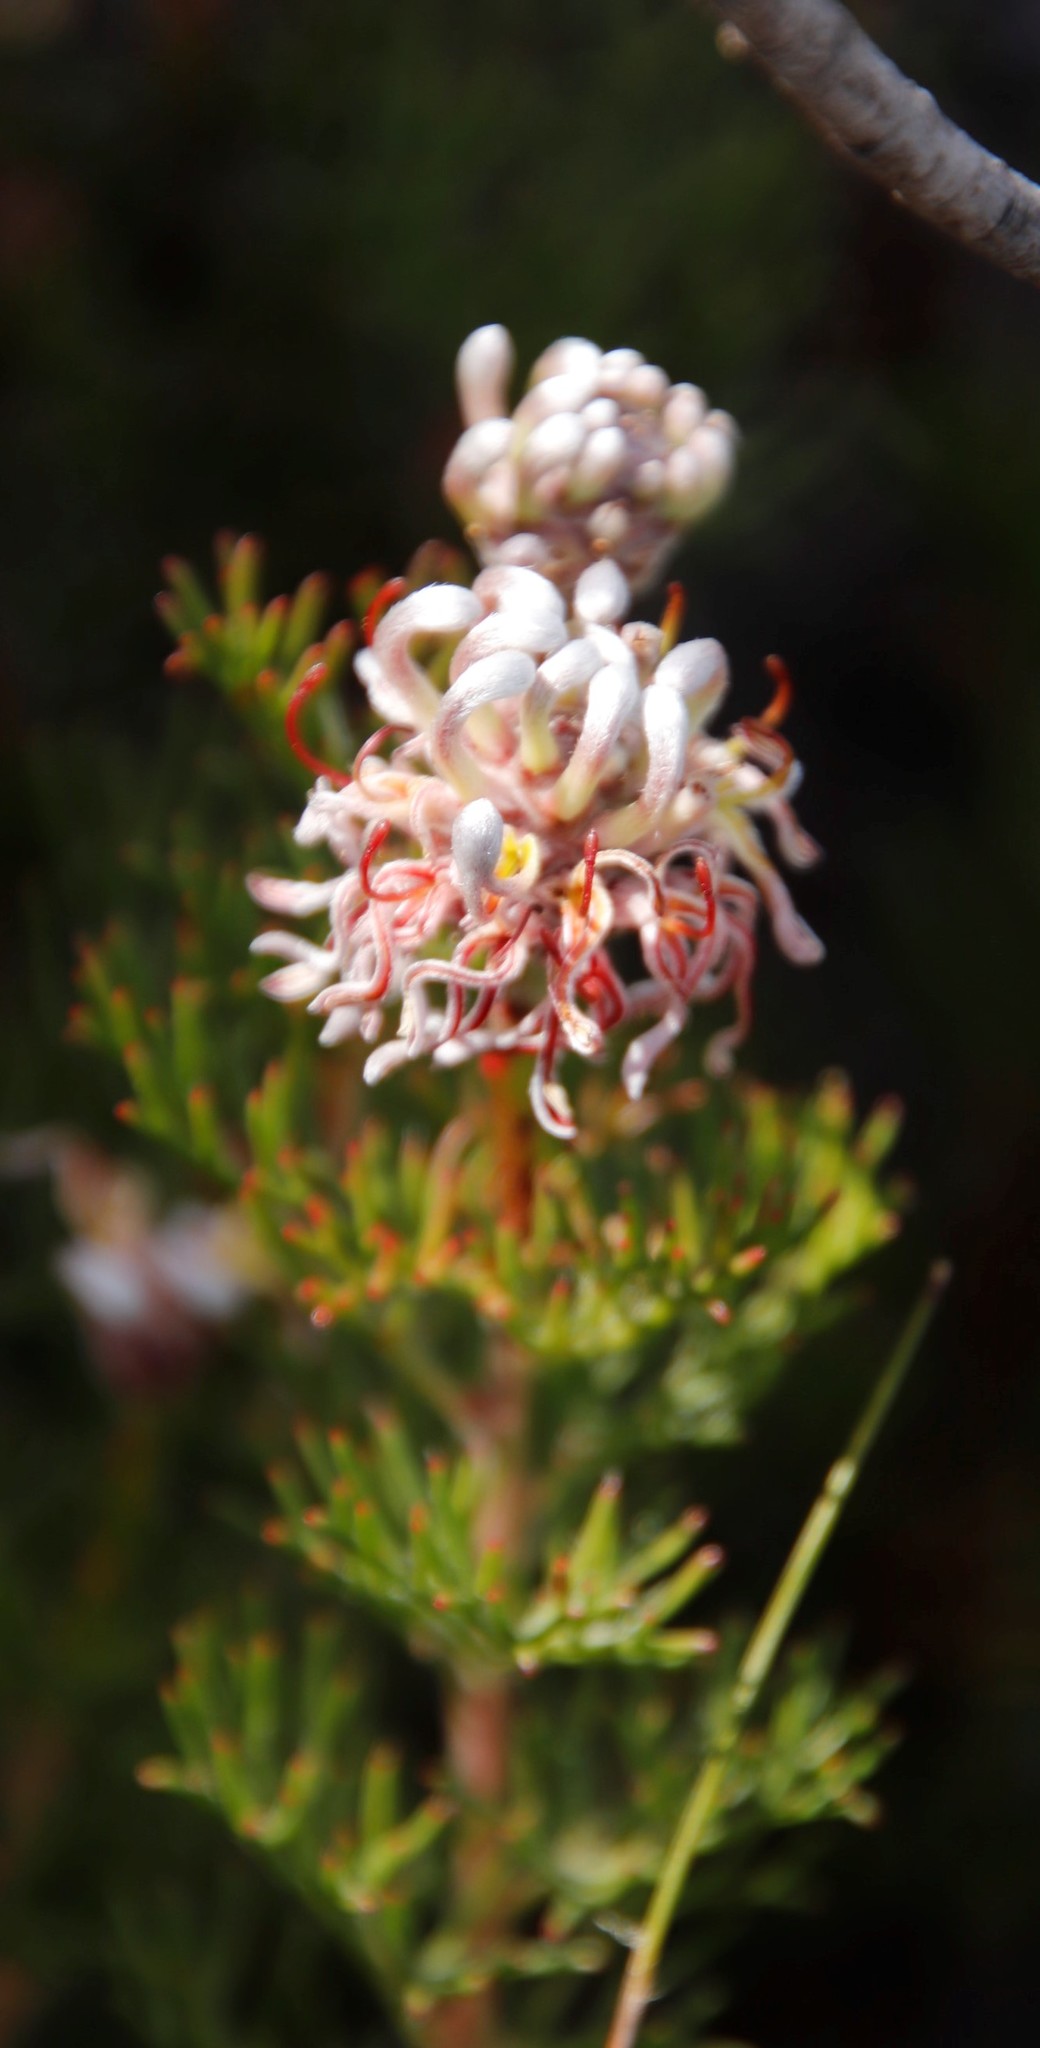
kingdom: Plantae
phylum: Tracheophyta
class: Magnoliopsida
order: Proteales
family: Proteaceae
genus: Serruria
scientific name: Serruria gremialis
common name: Riviersonderend spiderhead
